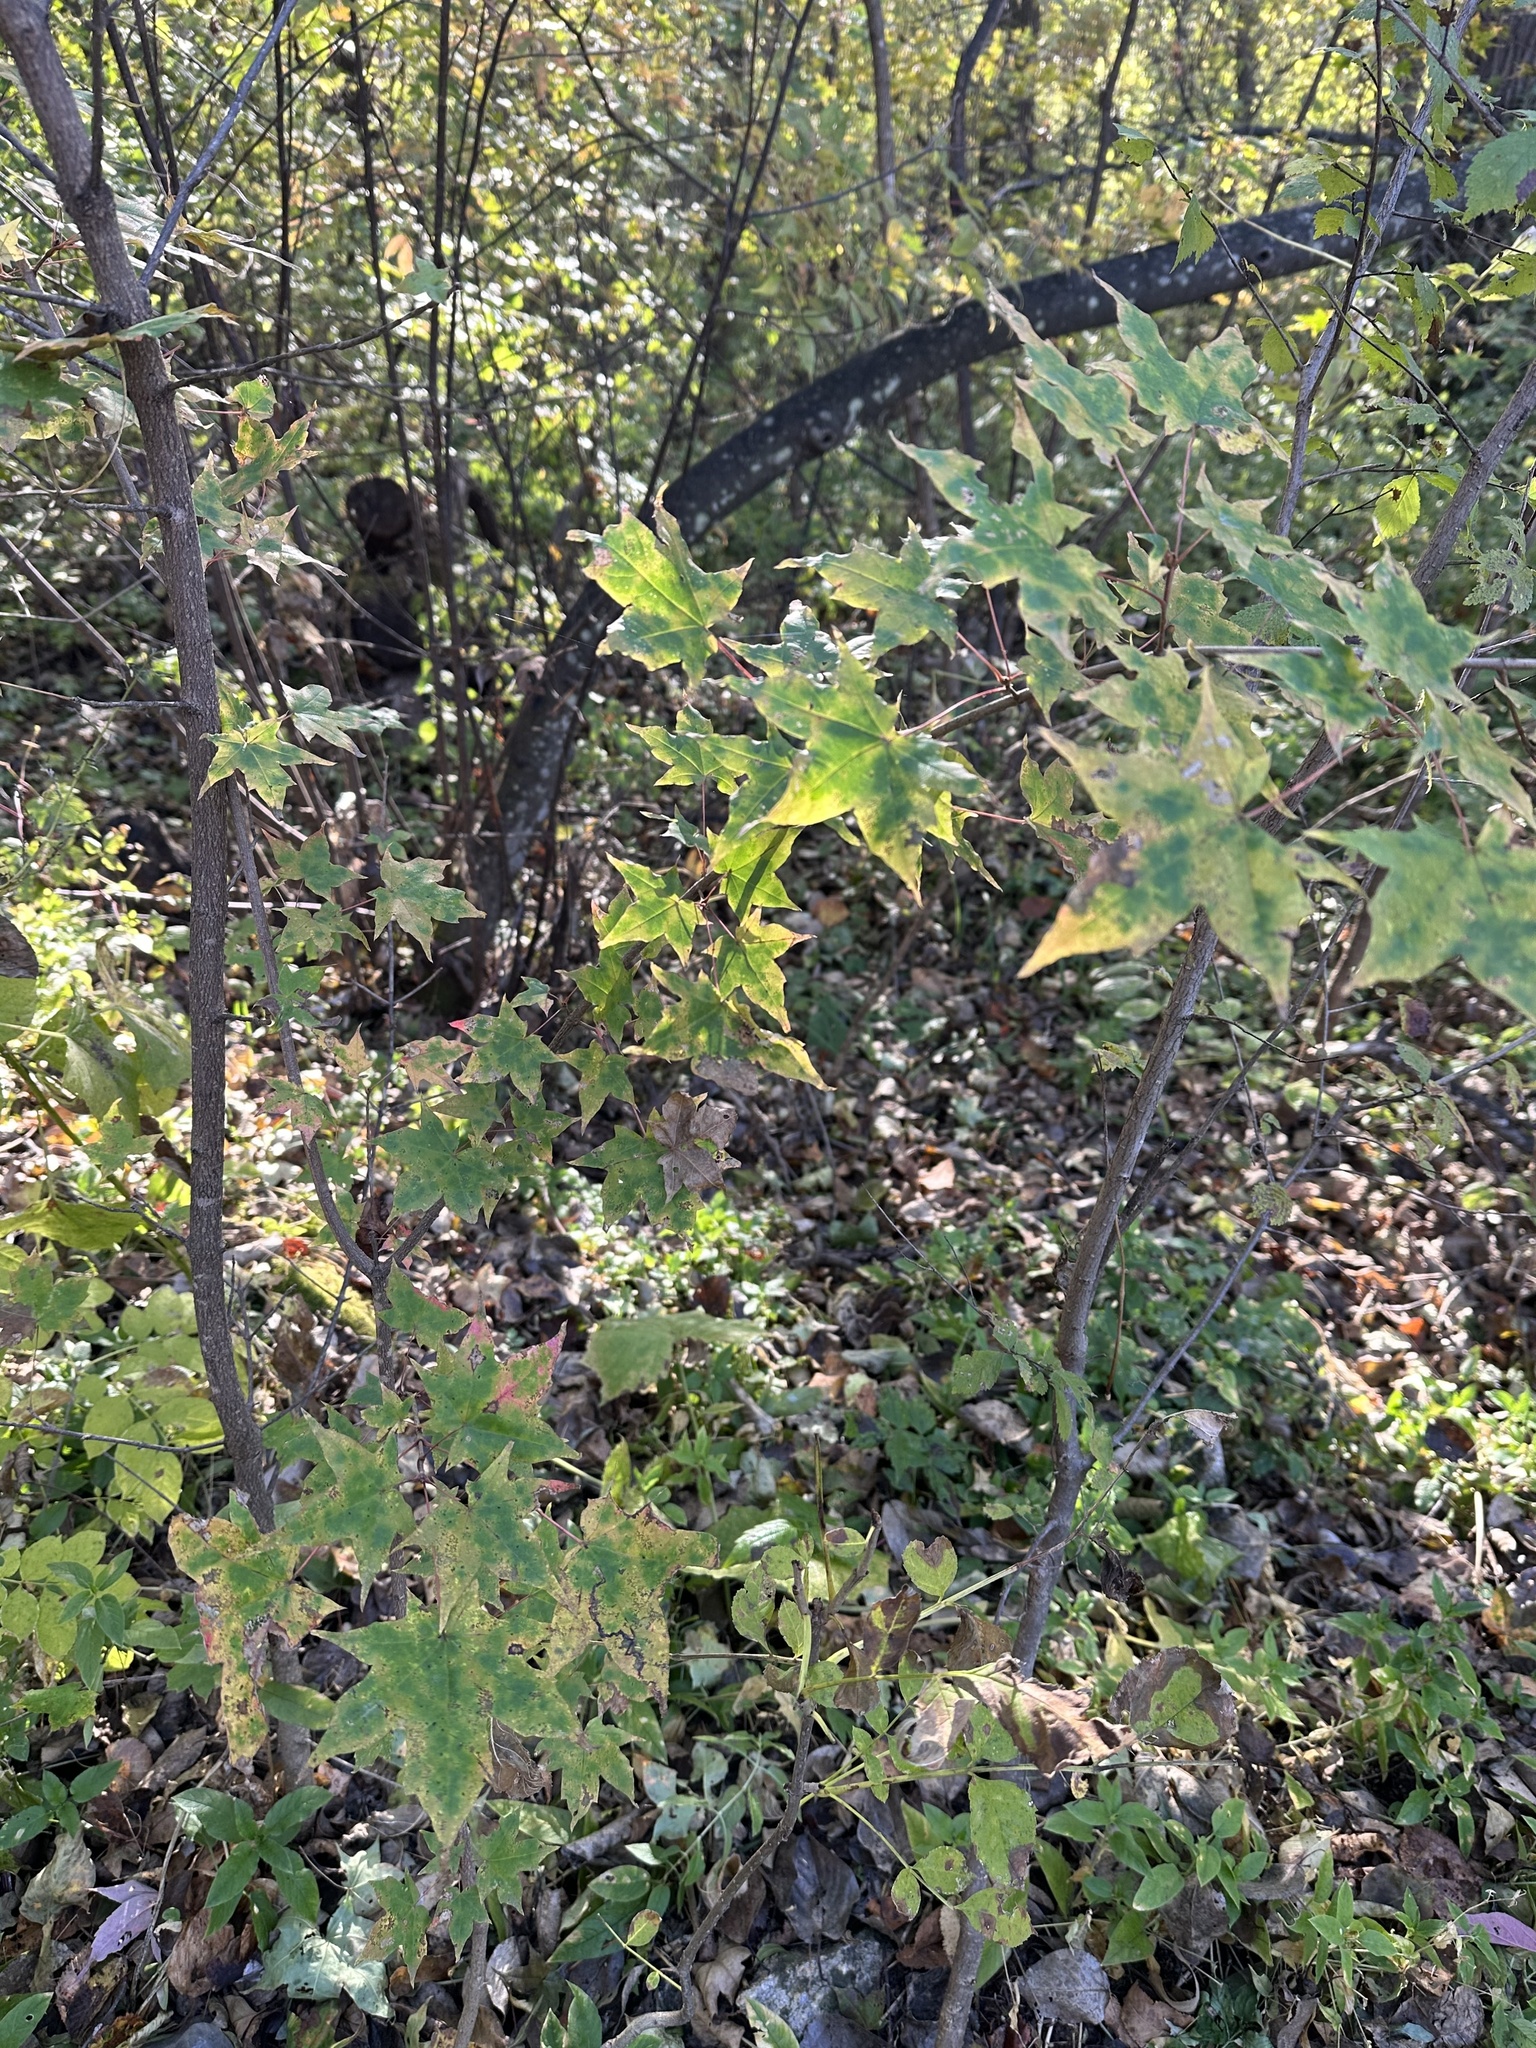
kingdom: Plantae
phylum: Tracheophyta
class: Magnoliopsida
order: Sapindales
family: Sapindaceae
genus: Acer
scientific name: Acer pictum
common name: The painted maple
